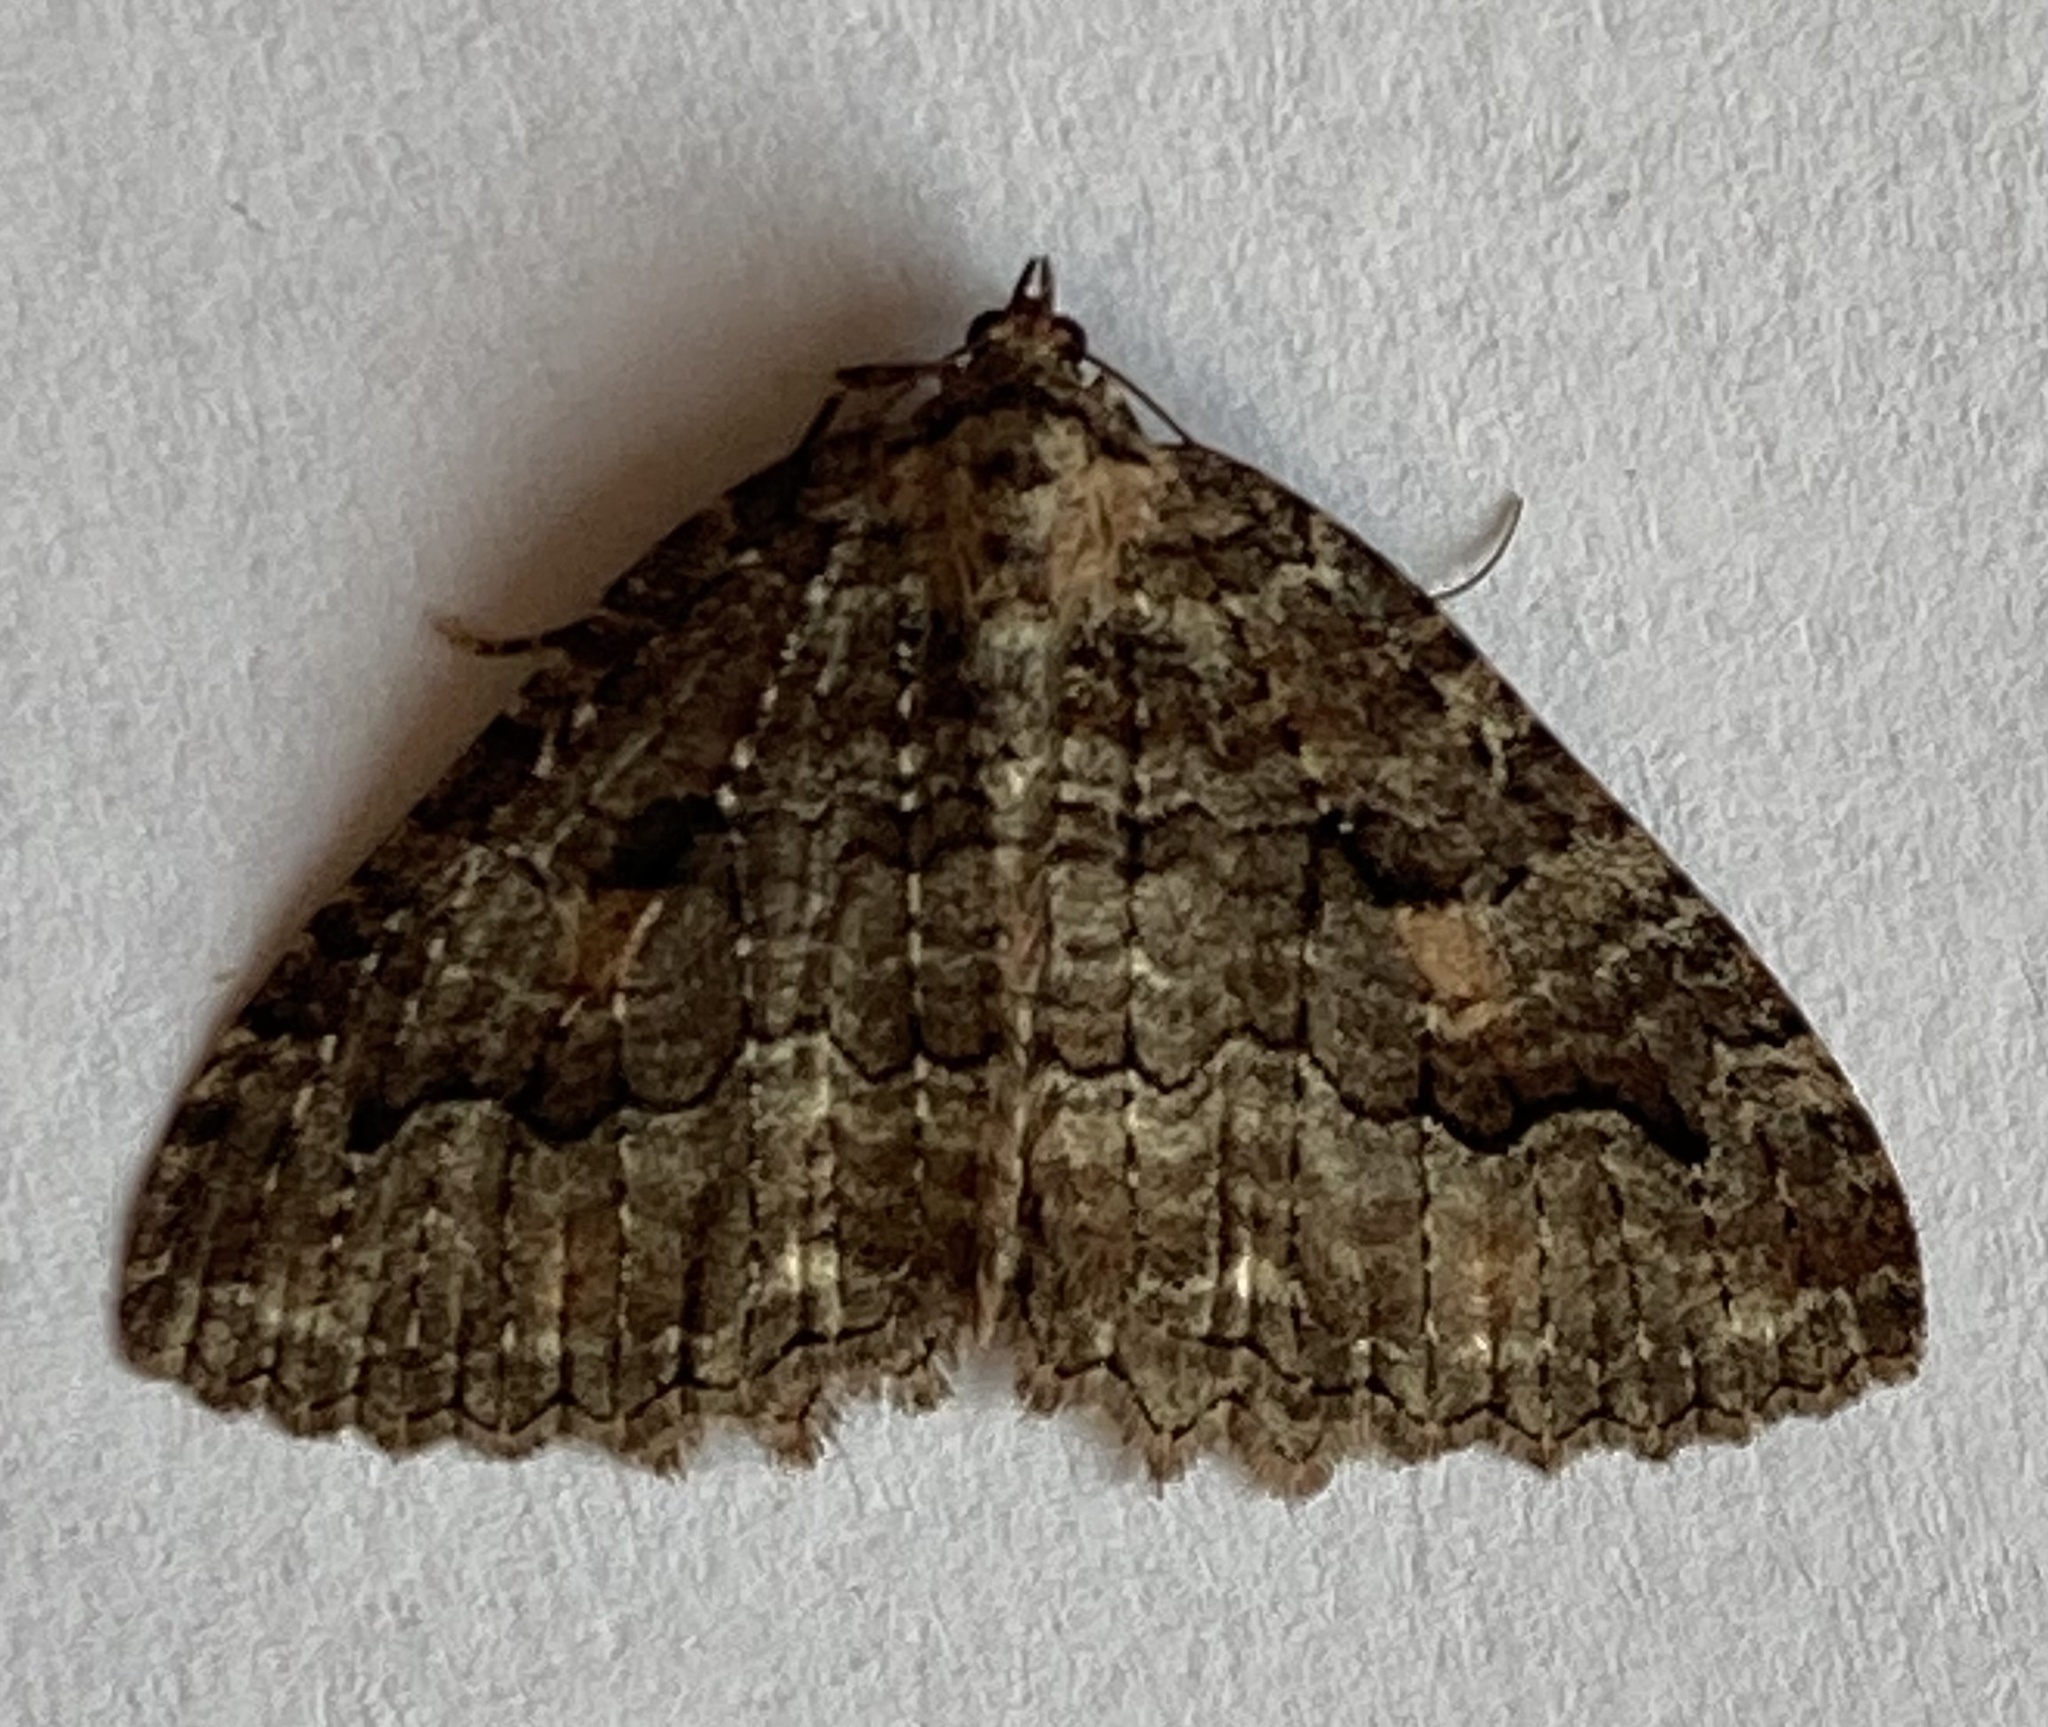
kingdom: Animalia
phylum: Arthropoda
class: Insecta
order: Lepidoptera
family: Geometridae
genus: Triphosa
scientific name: Triphosa haesitata
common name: Tissue moth
